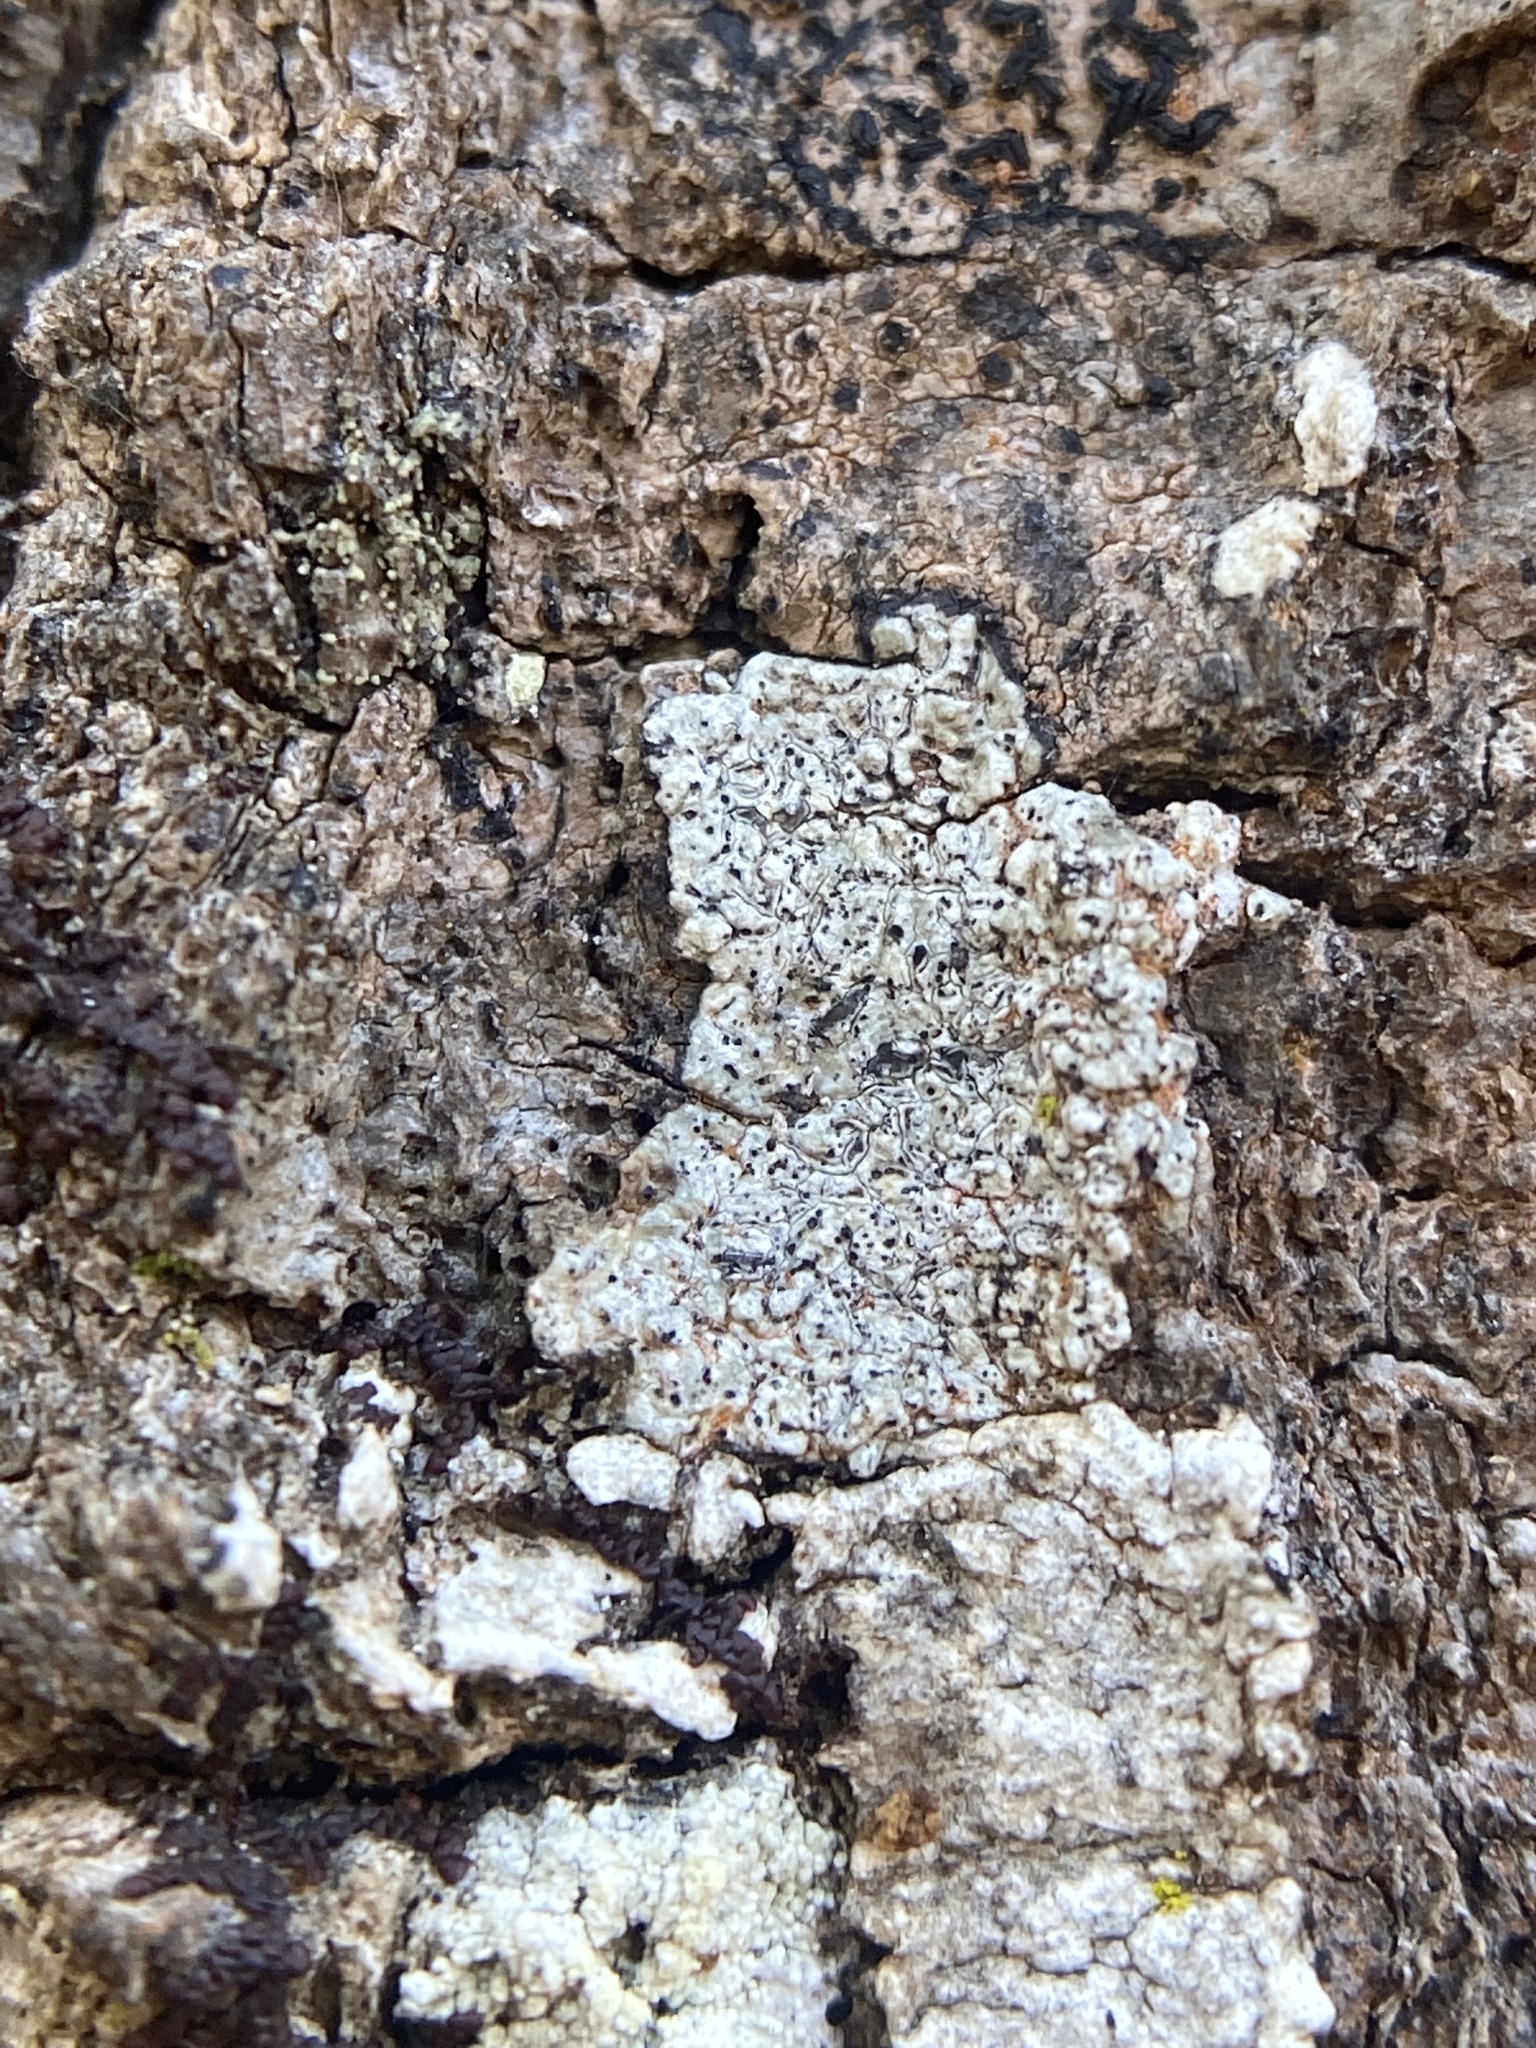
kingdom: Fungi
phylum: Ascomycota
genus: Minutoexcipula
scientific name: Minutoexcipula tuckerae
